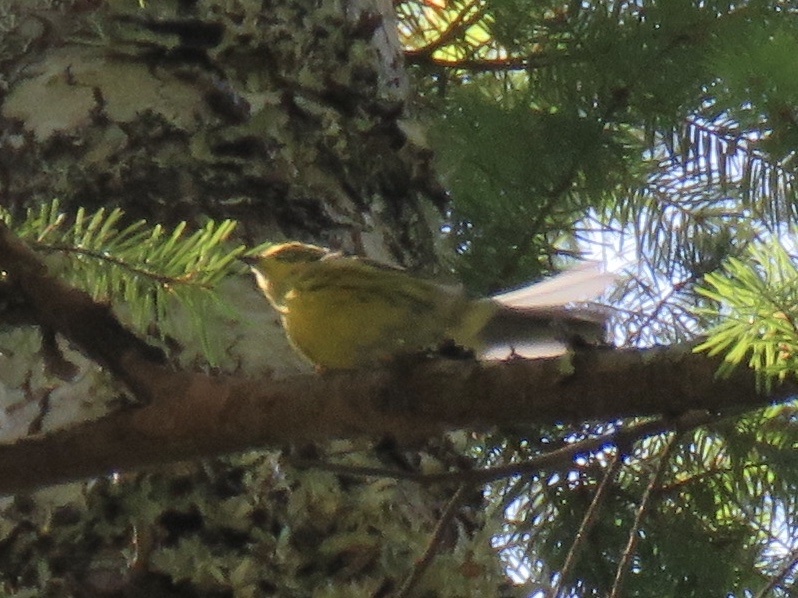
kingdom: Animalia
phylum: Chordata
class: Aves
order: Passeriformes
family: Parulidae
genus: Setophaga
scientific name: Setophaga townsendi
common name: Townsend's warbler
